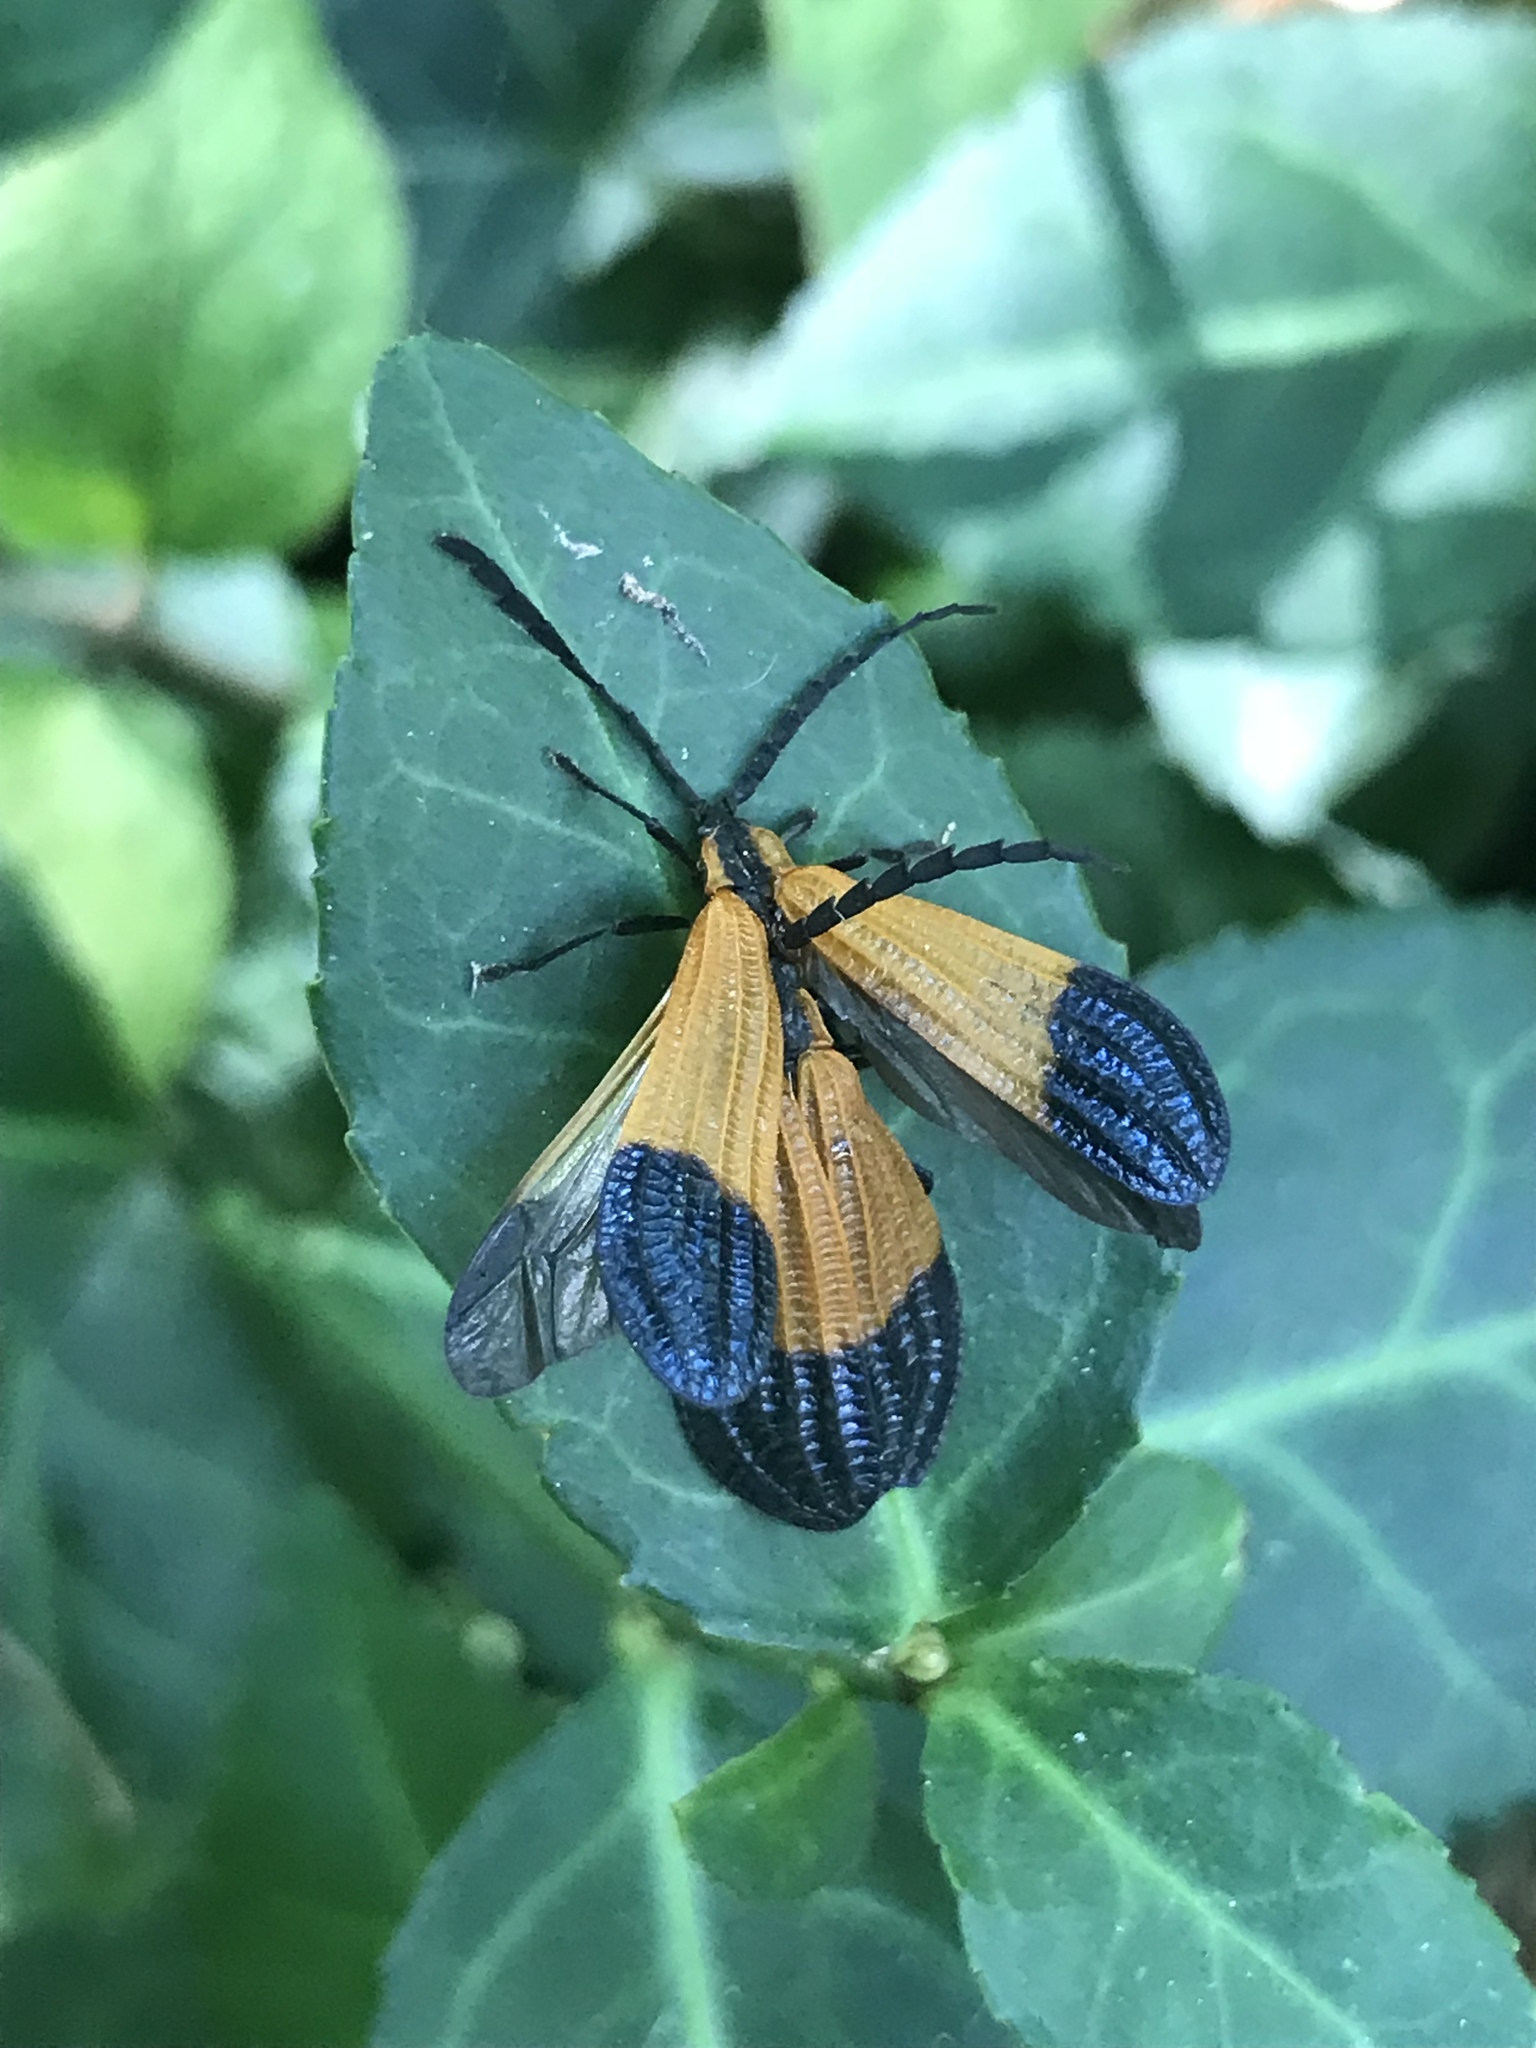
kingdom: Animalia
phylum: Arthropoda
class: Insecta
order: Coleoptera
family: Lycidae
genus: Calopteron
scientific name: Calopteron terminale
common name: End band net-winged beetle
